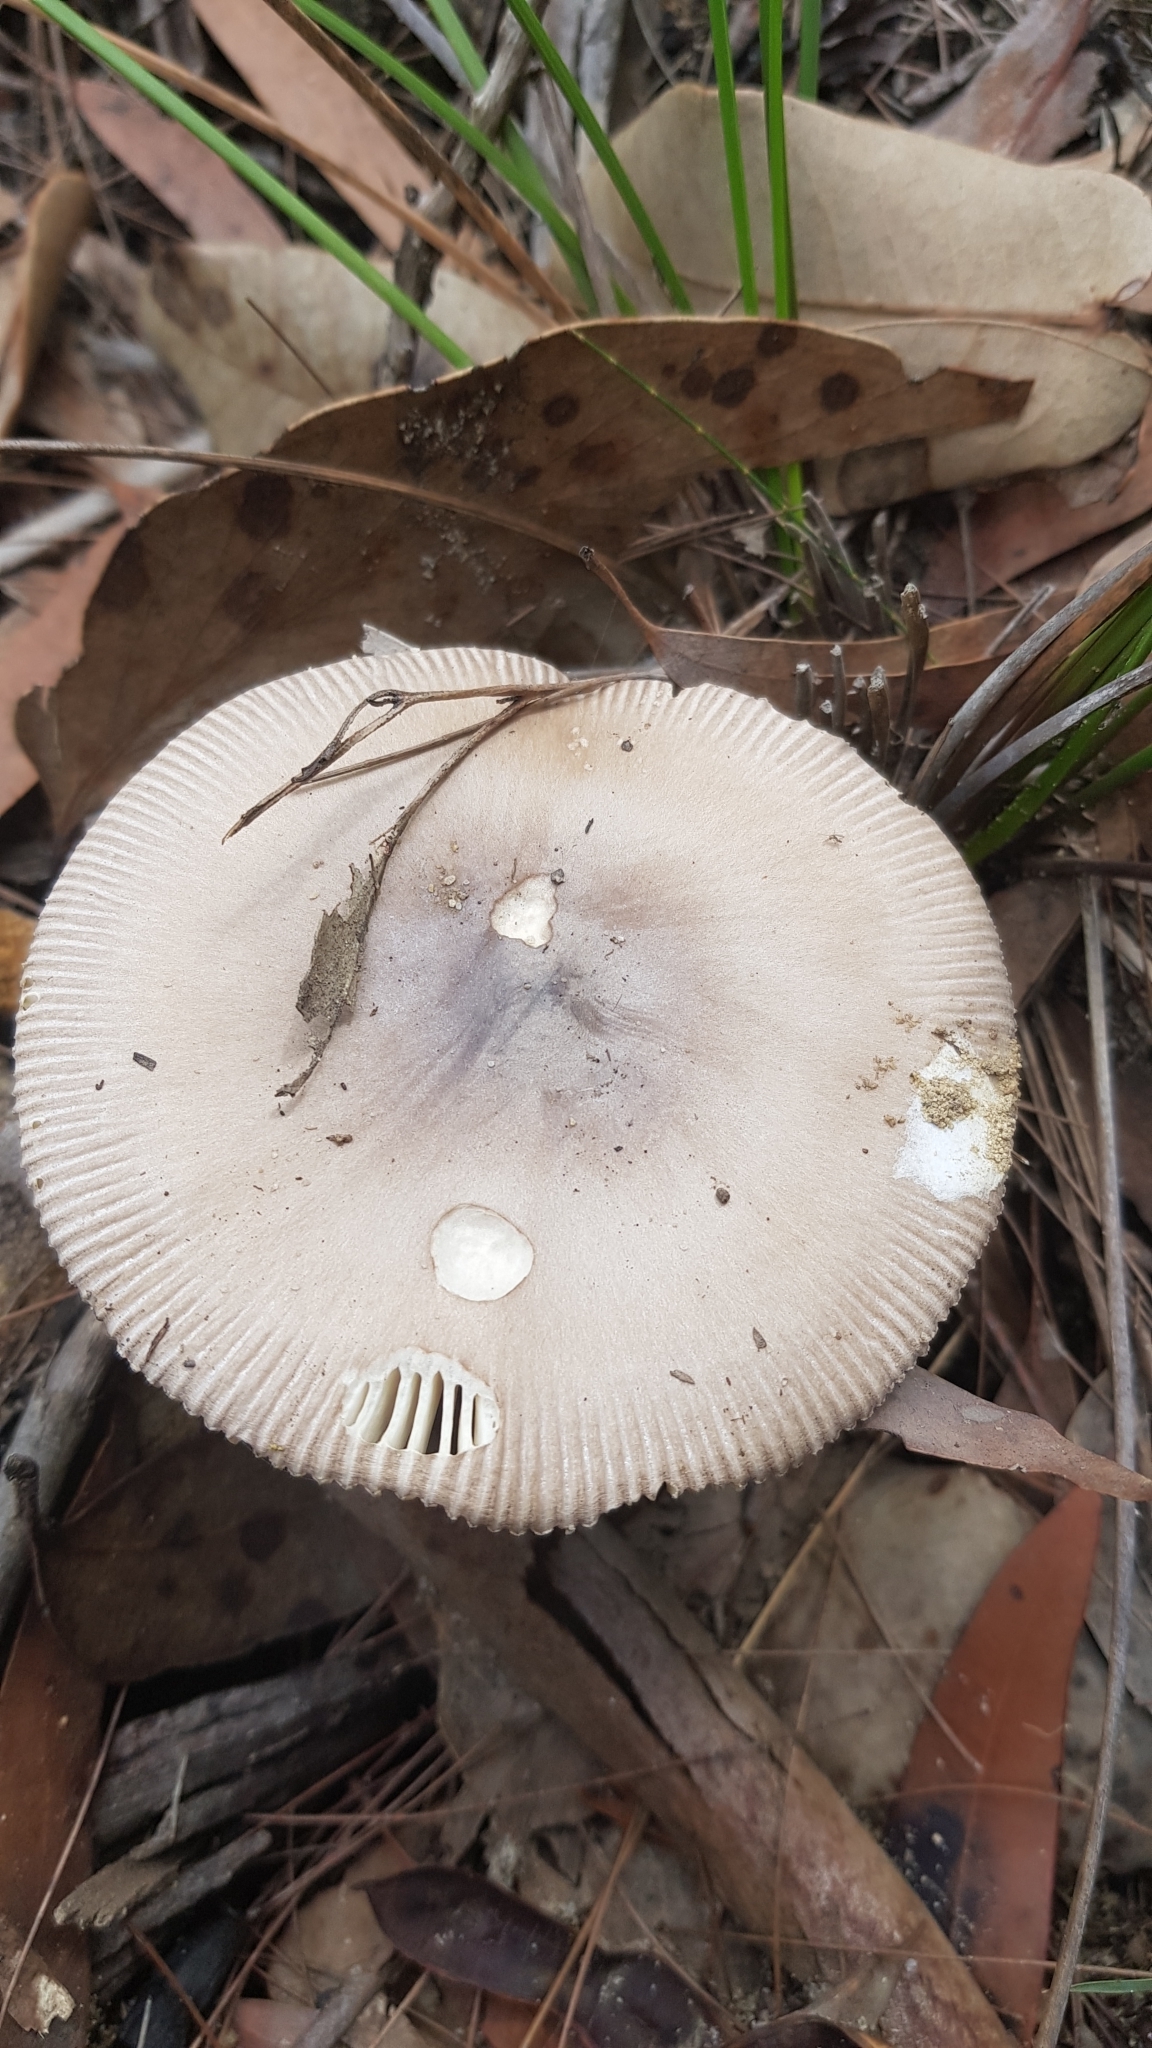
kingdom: Fungi
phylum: Basidiomycota
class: Agaricomycetes
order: Agaricales
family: Amanitaceae
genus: Amanita
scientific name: Amanita cheelii
